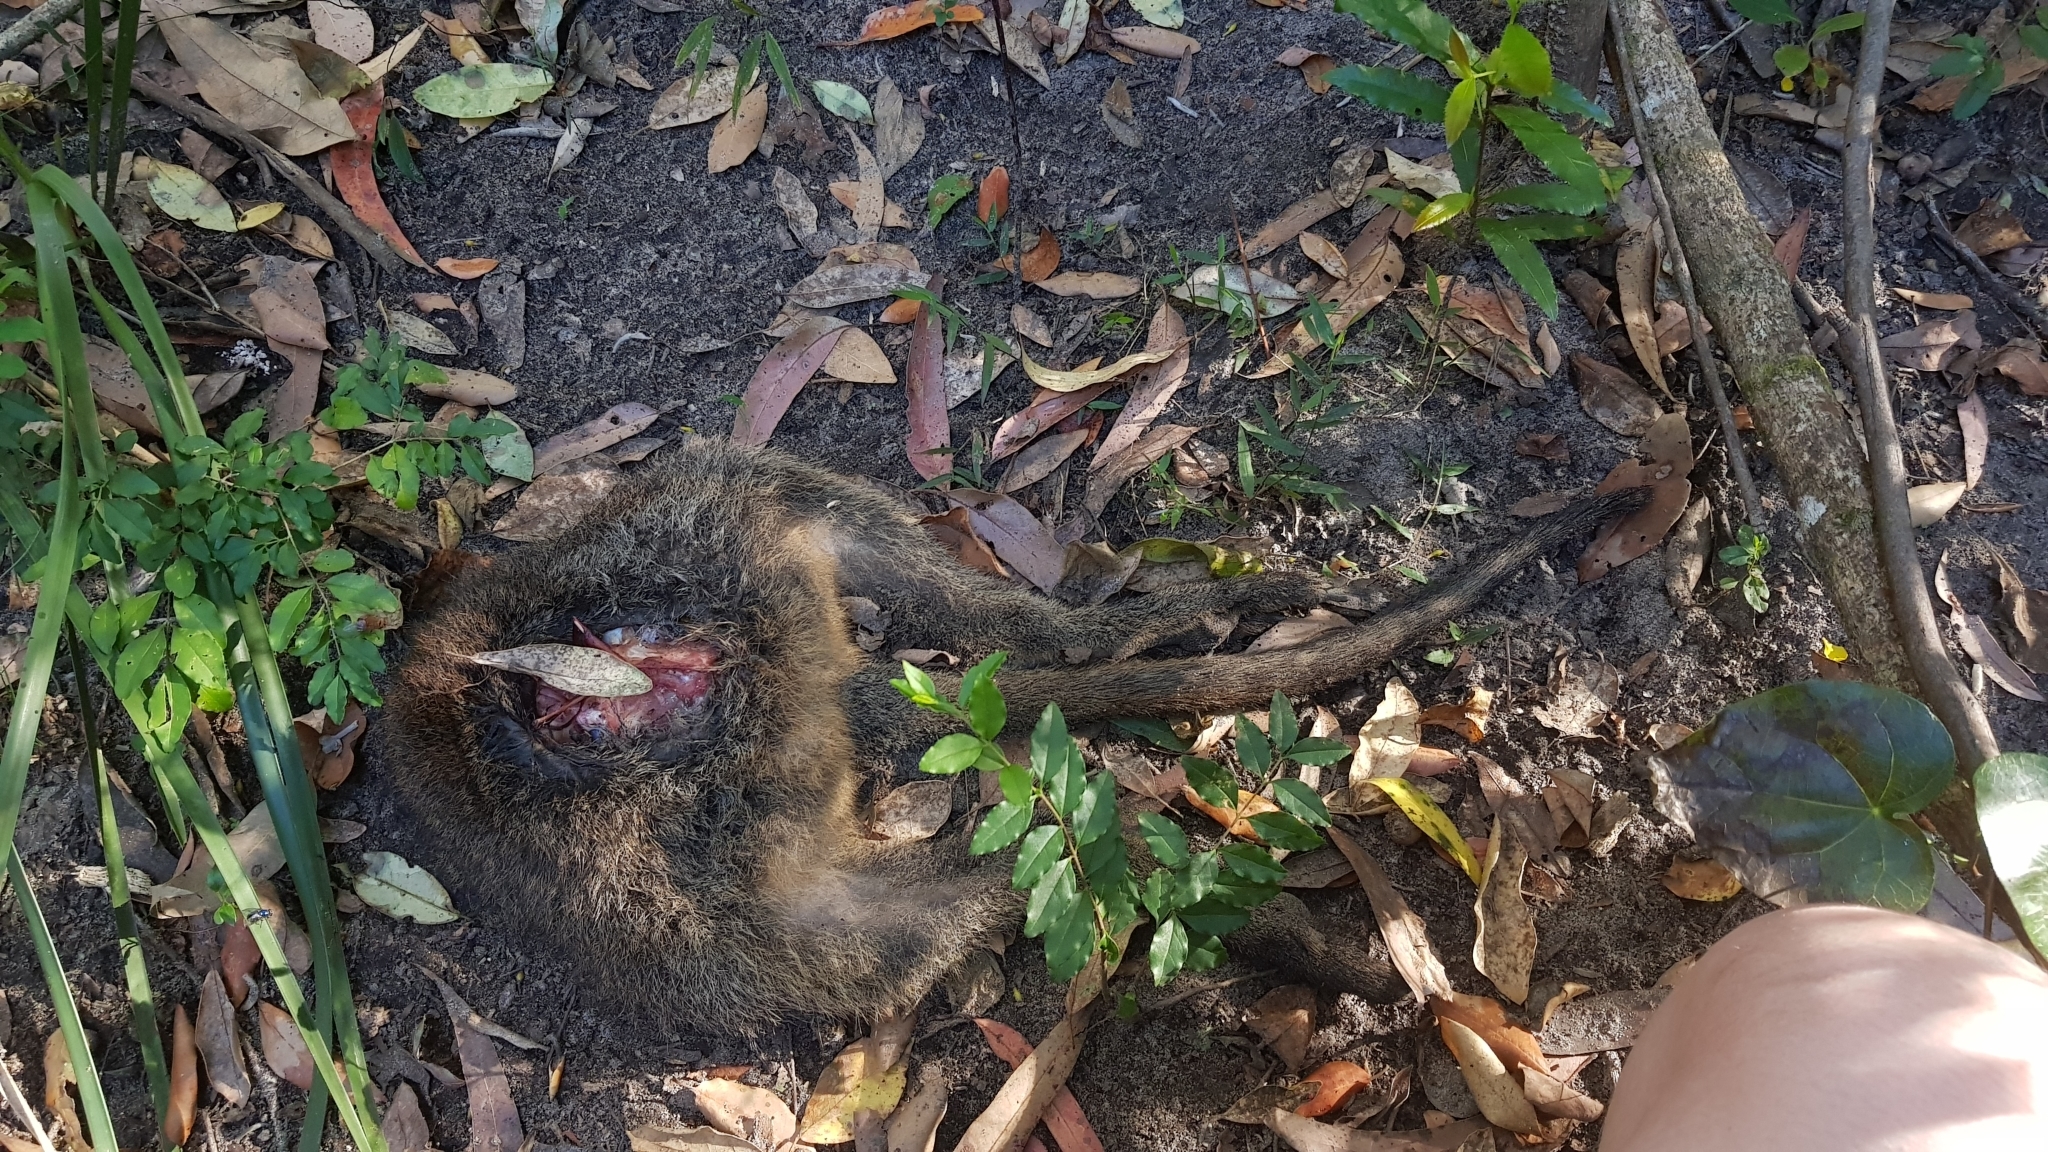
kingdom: Animalia
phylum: Chordata
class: Mammalia
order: Diprotodontia
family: Macropodidae
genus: Wallabia
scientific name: Wallabia bicolor
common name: Swamp wallaby
